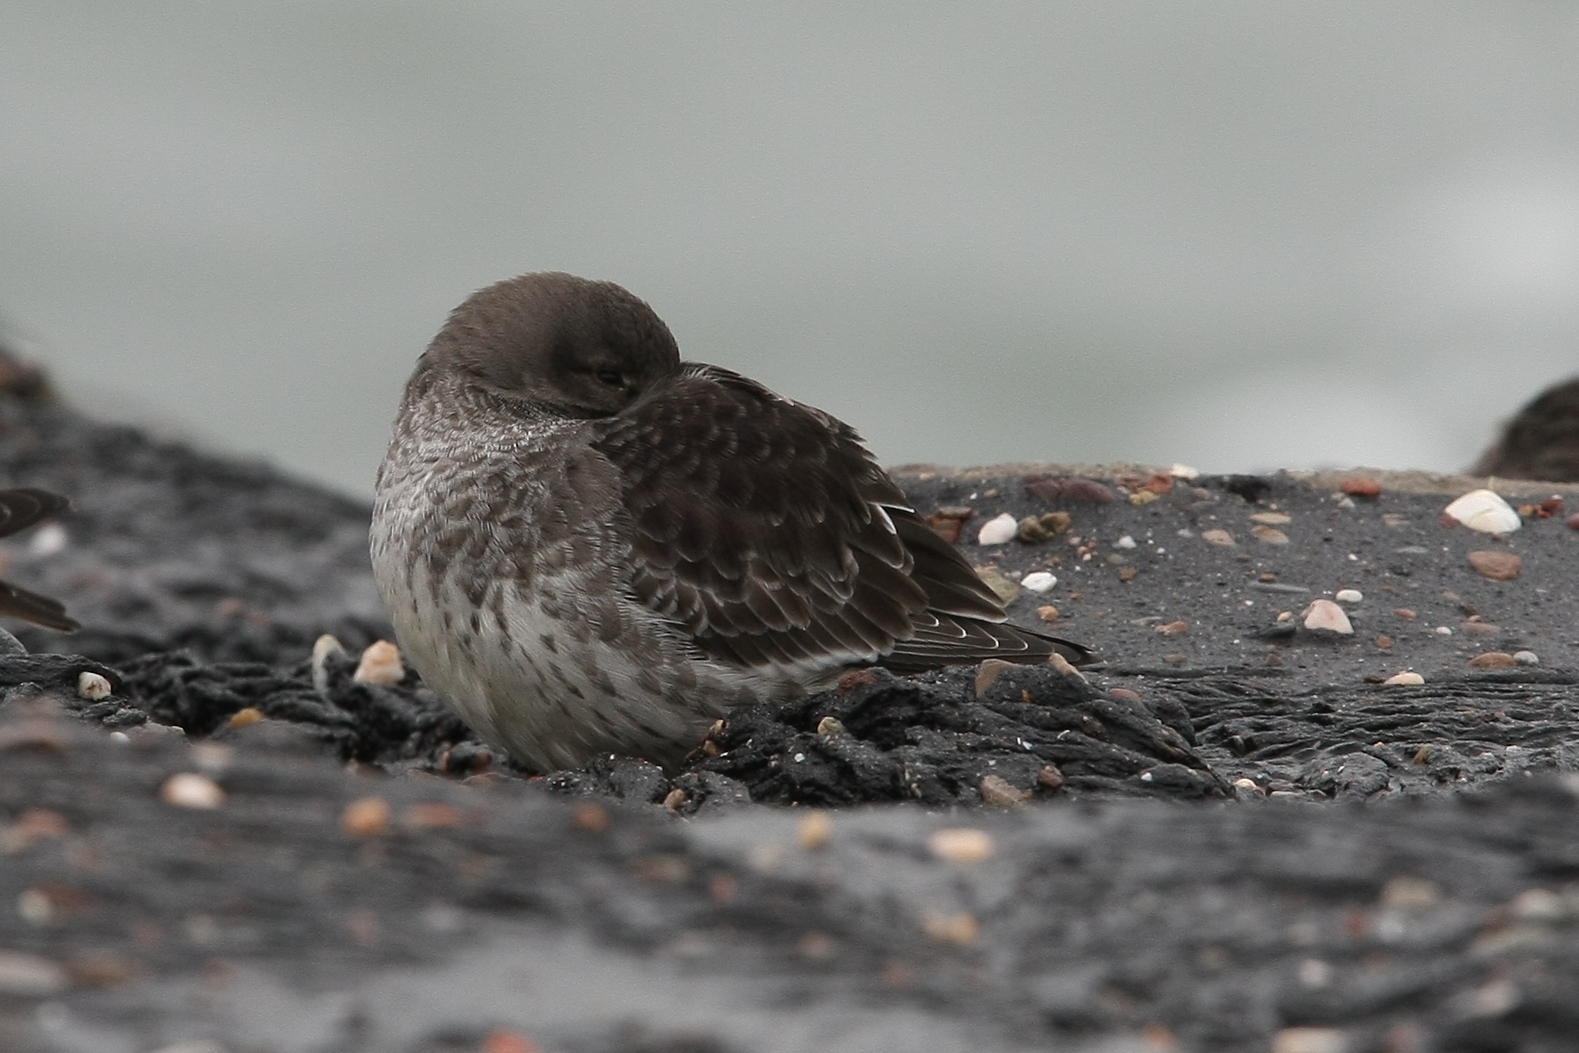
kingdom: Animalia
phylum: Chordata
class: Aves
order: Charadriiformes
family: Scolopacidae
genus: Calidris
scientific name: Calidris maritima
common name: Purple sandpiper
